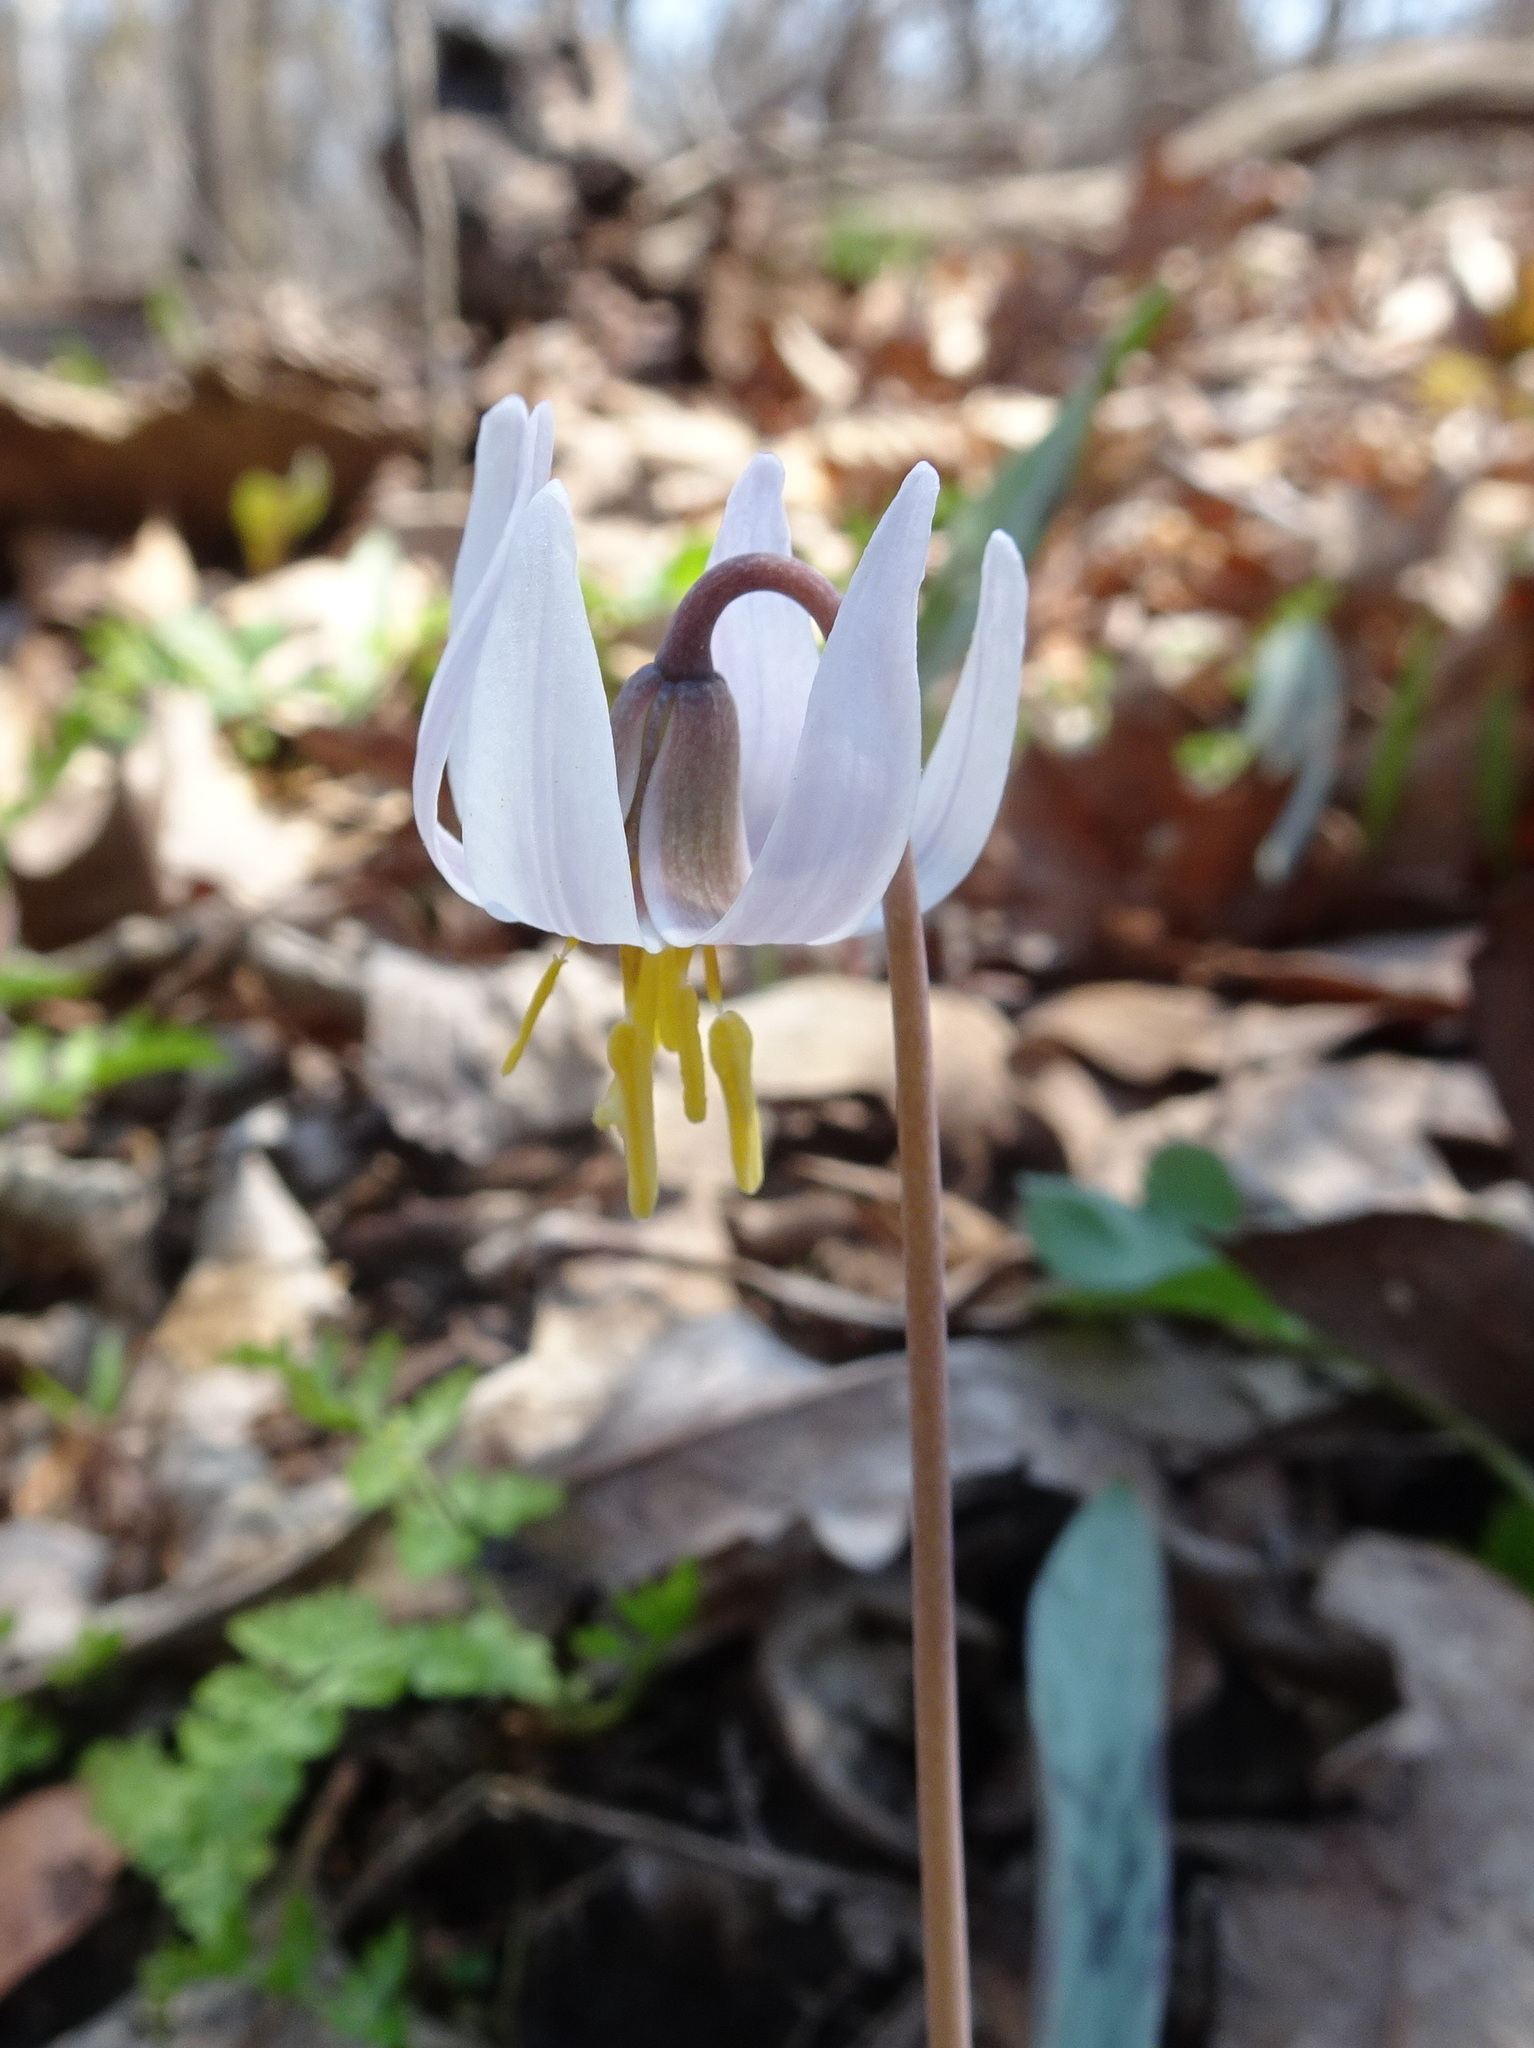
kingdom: Plantae
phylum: Tracheophyta
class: Liliopsida
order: Liliales
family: Liliaceae
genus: Erythronium
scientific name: Erythronium albidum
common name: White trout-lily
